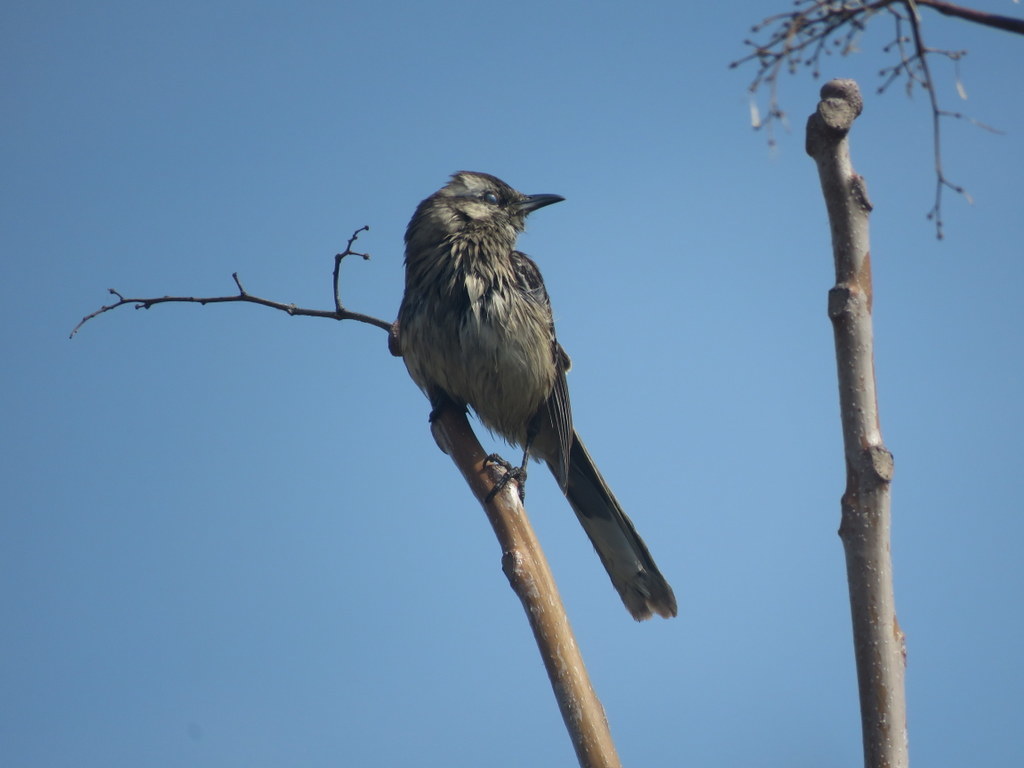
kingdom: Animalia
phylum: Chordata
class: Aves
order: Passeriformes
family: Mimidae
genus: Mimus
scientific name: Mimus saturninus
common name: Chalk-browed mockingbird
